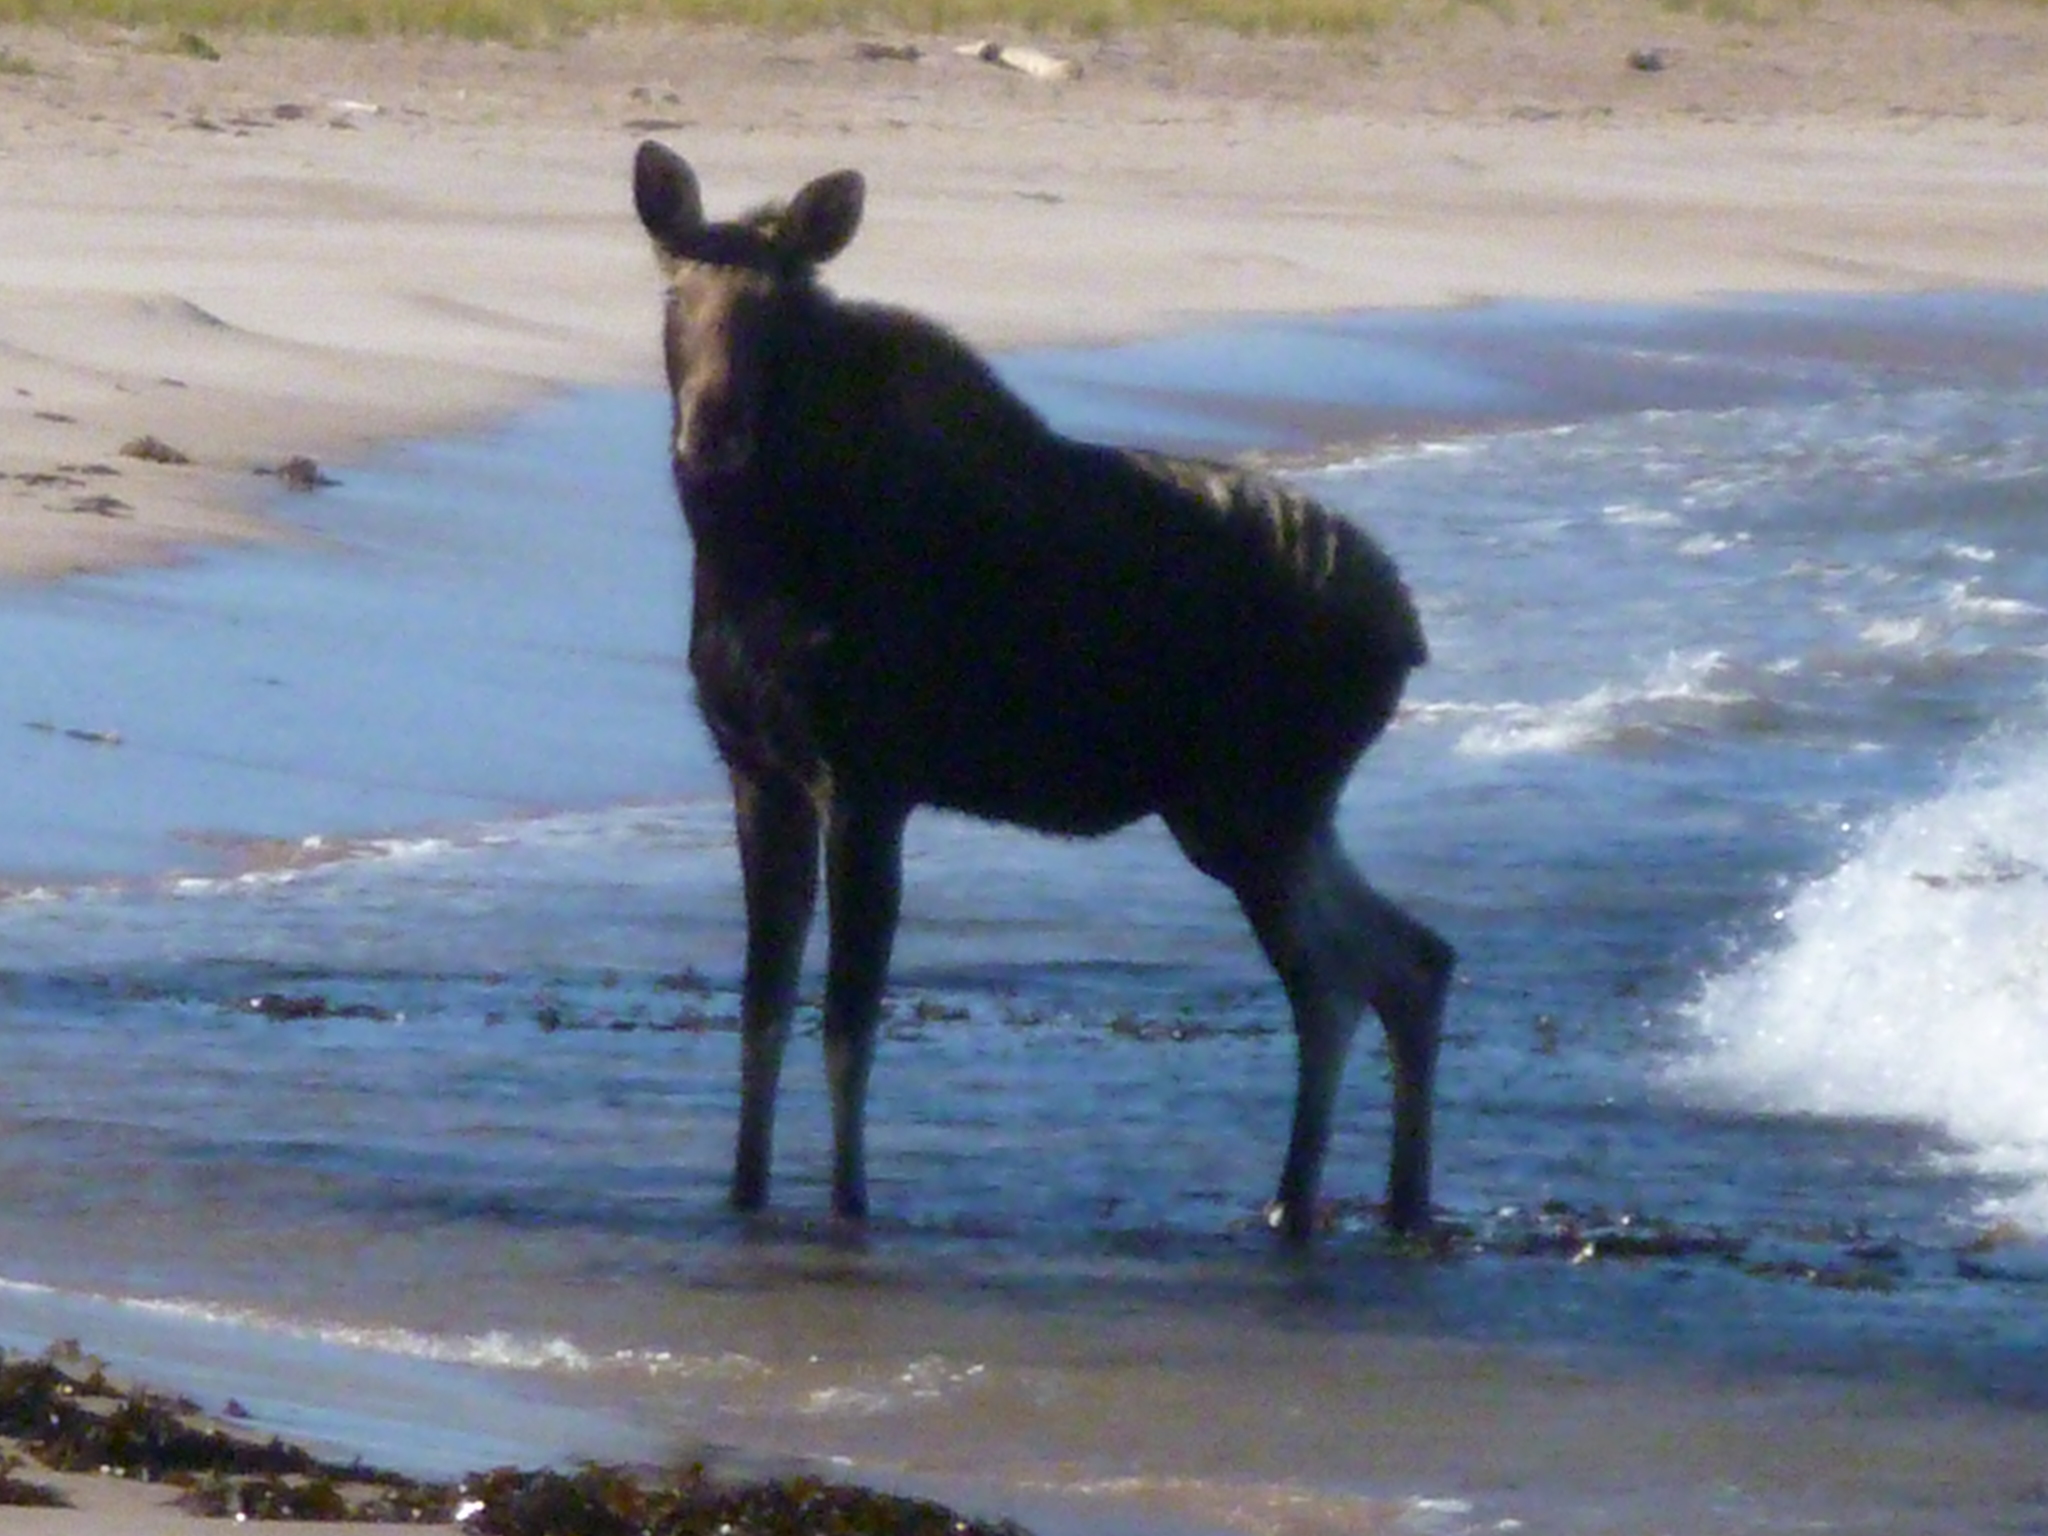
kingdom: Animalia
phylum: Chordata
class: Mammalia
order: Artiodactyla
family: Cervidae
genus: Alces
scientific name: Alces americanus
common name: Moose
